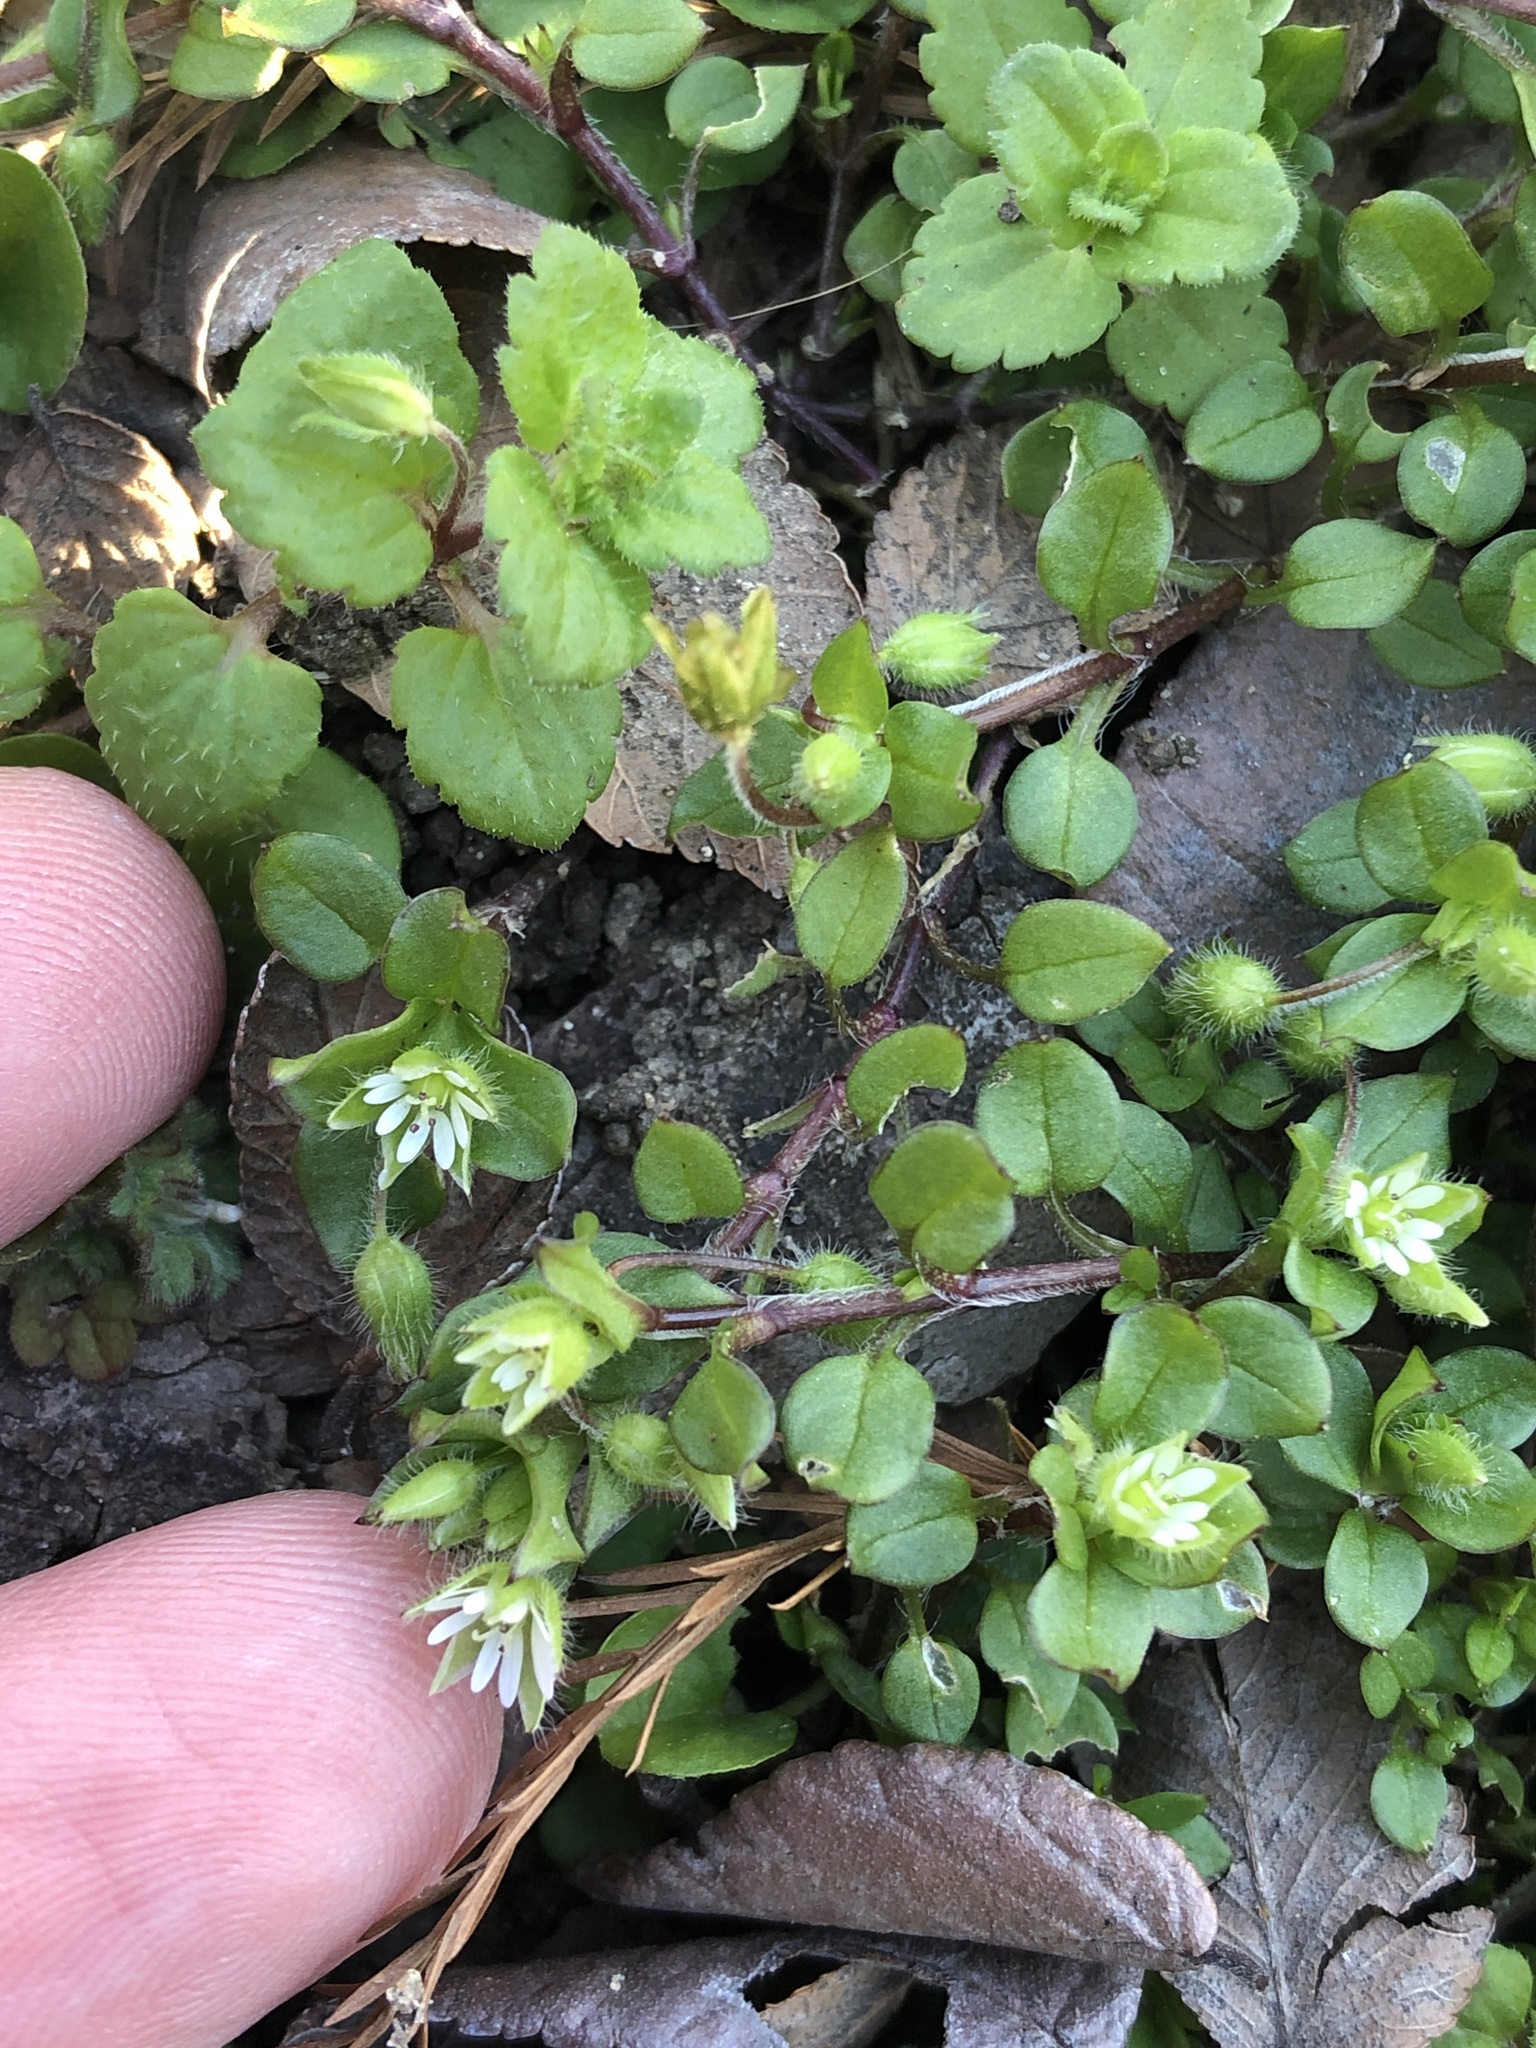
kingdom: Plantae
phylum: Tracheophyta
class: Magnoliopsida
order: Caryophyllales
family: Caryophyllaceae
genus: Stellaria
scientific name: Stellaria media
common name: Common chickweed
